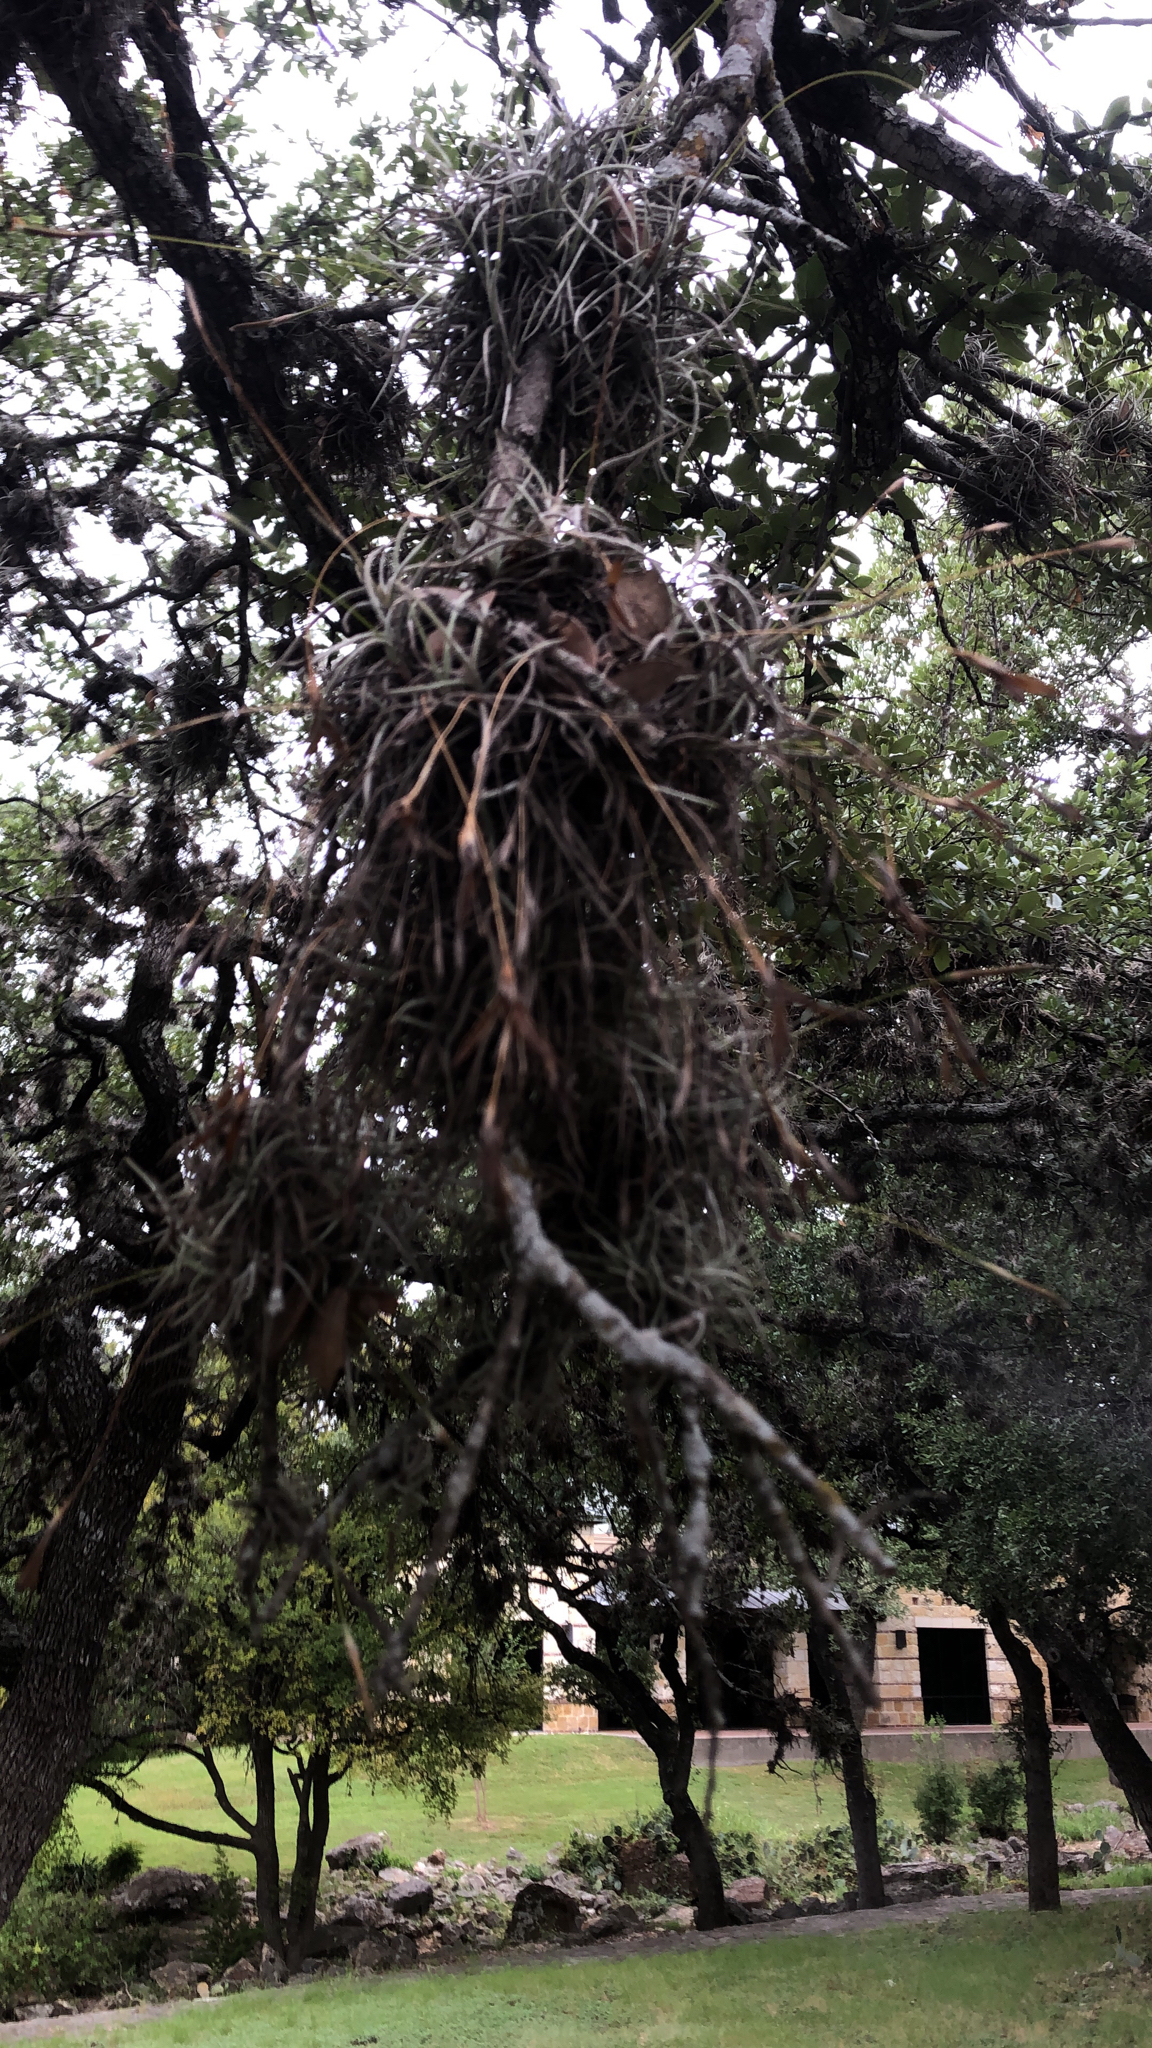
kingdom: Plantae
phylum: Tracheophyta
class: Liliopsida
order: Poales
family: Bromeliaceae
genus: Tillandsia
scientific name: Tillandsia recurvata
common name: Small ballmoss
